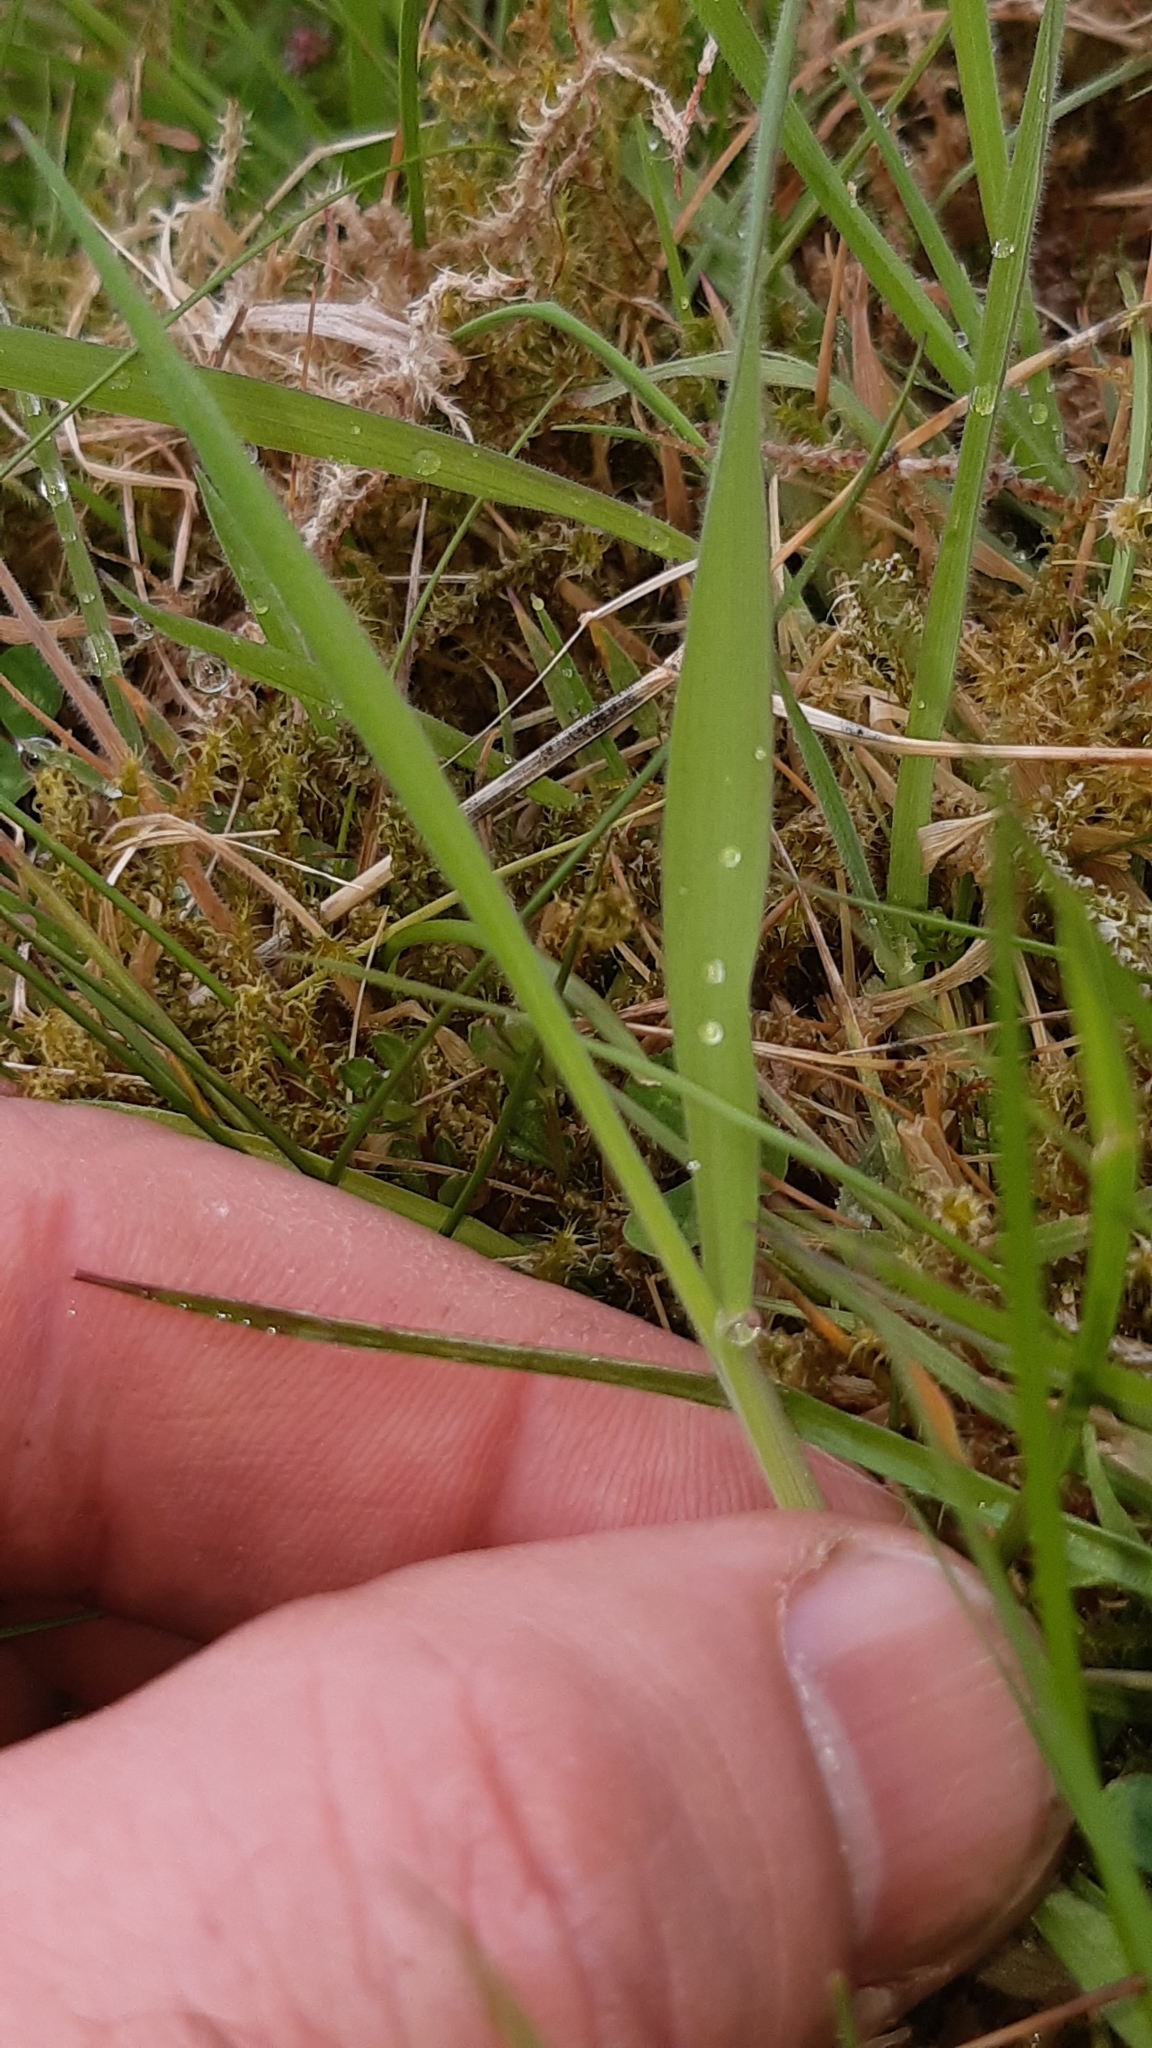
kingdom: Plantae
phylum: Tracheophyta
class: Liliopsida
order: Poales
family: Poaceae
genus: Holcus
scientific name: Holcus lanatus
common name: Yorkshire-fog
